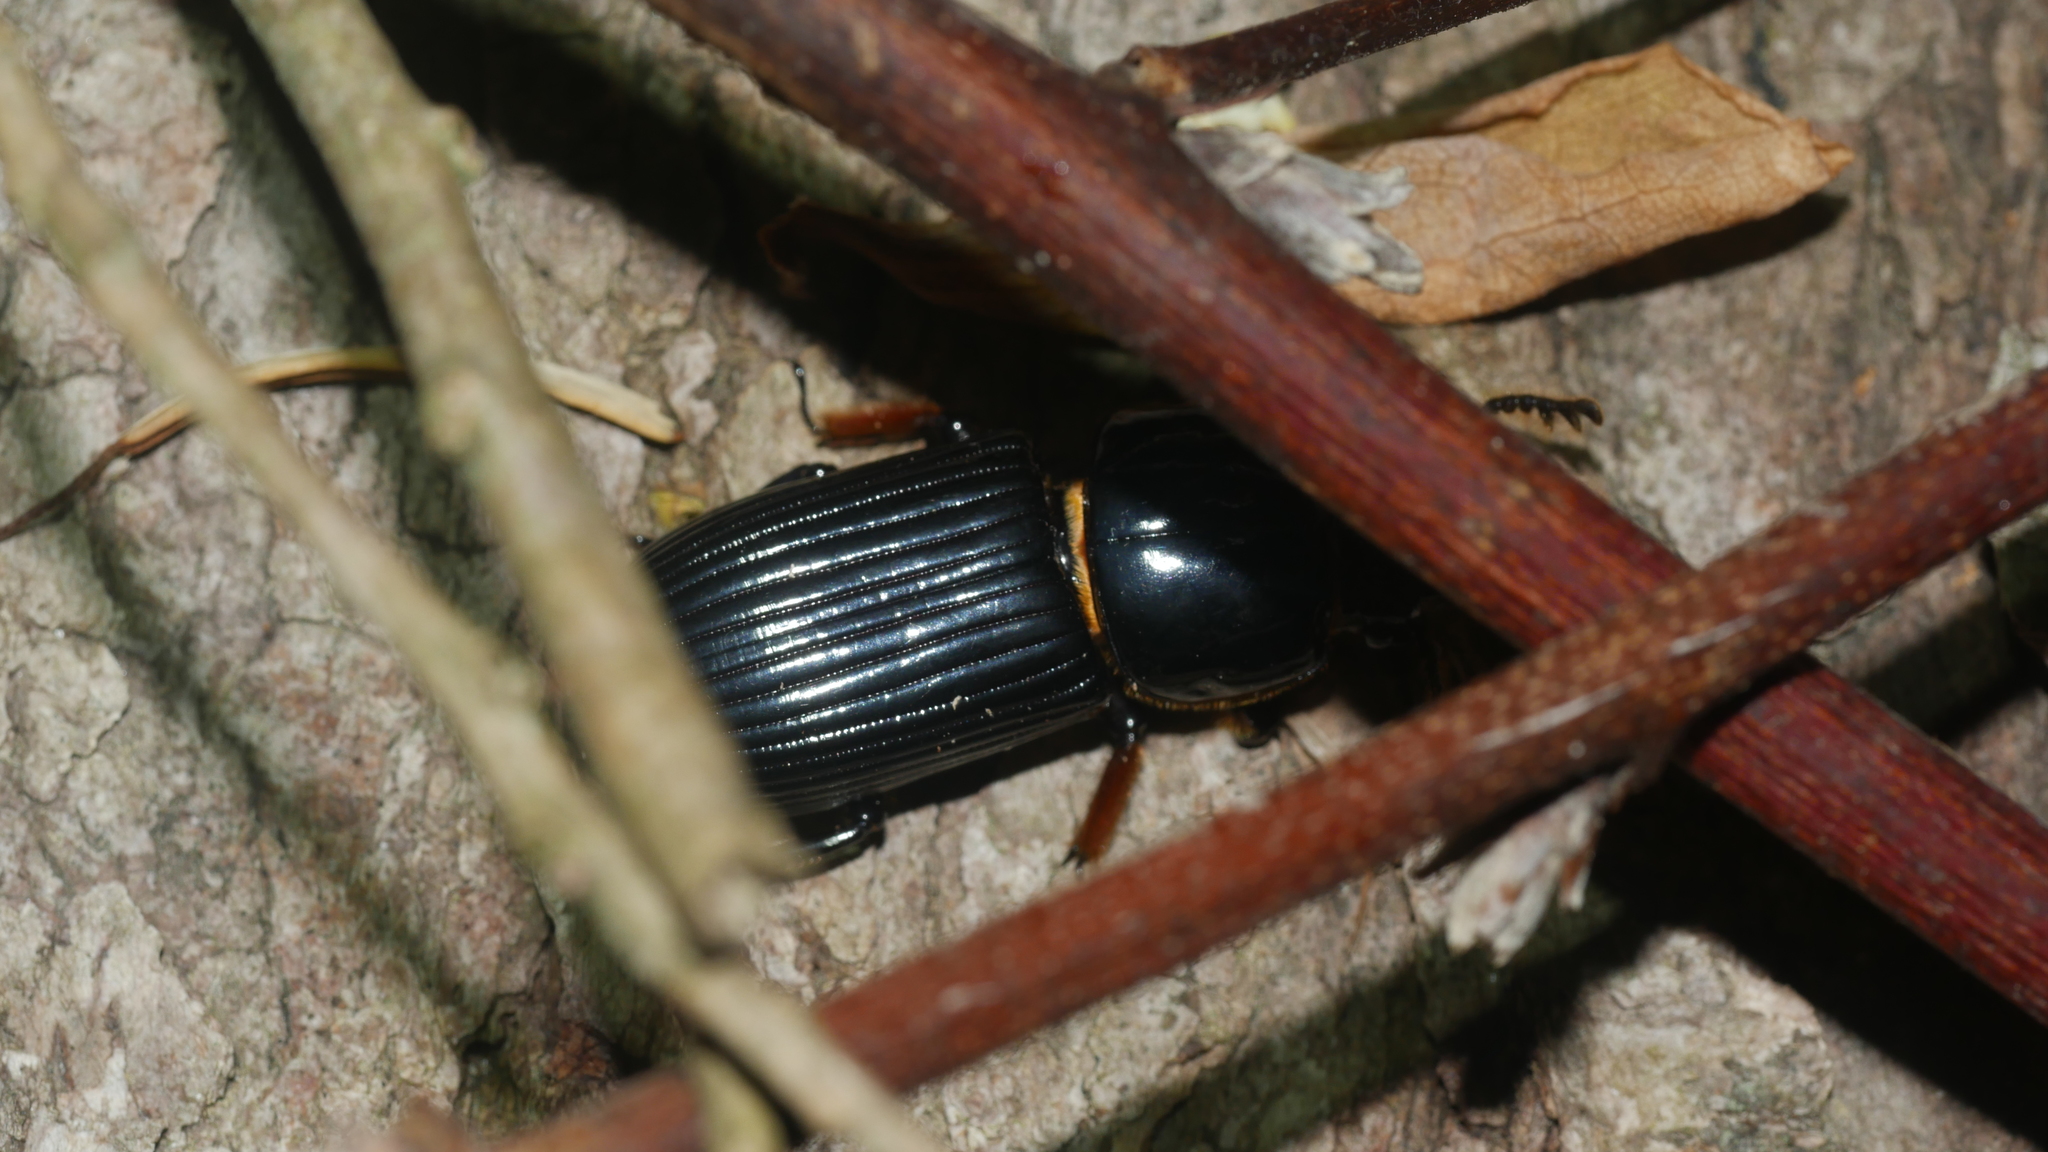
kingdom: Animalia
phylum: Arthropoda
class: Insecta
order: Coleoptera
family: Passalidae
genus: Odontotaenius
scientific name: Odontotaenius disjunctus
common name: Patent leather beetle
